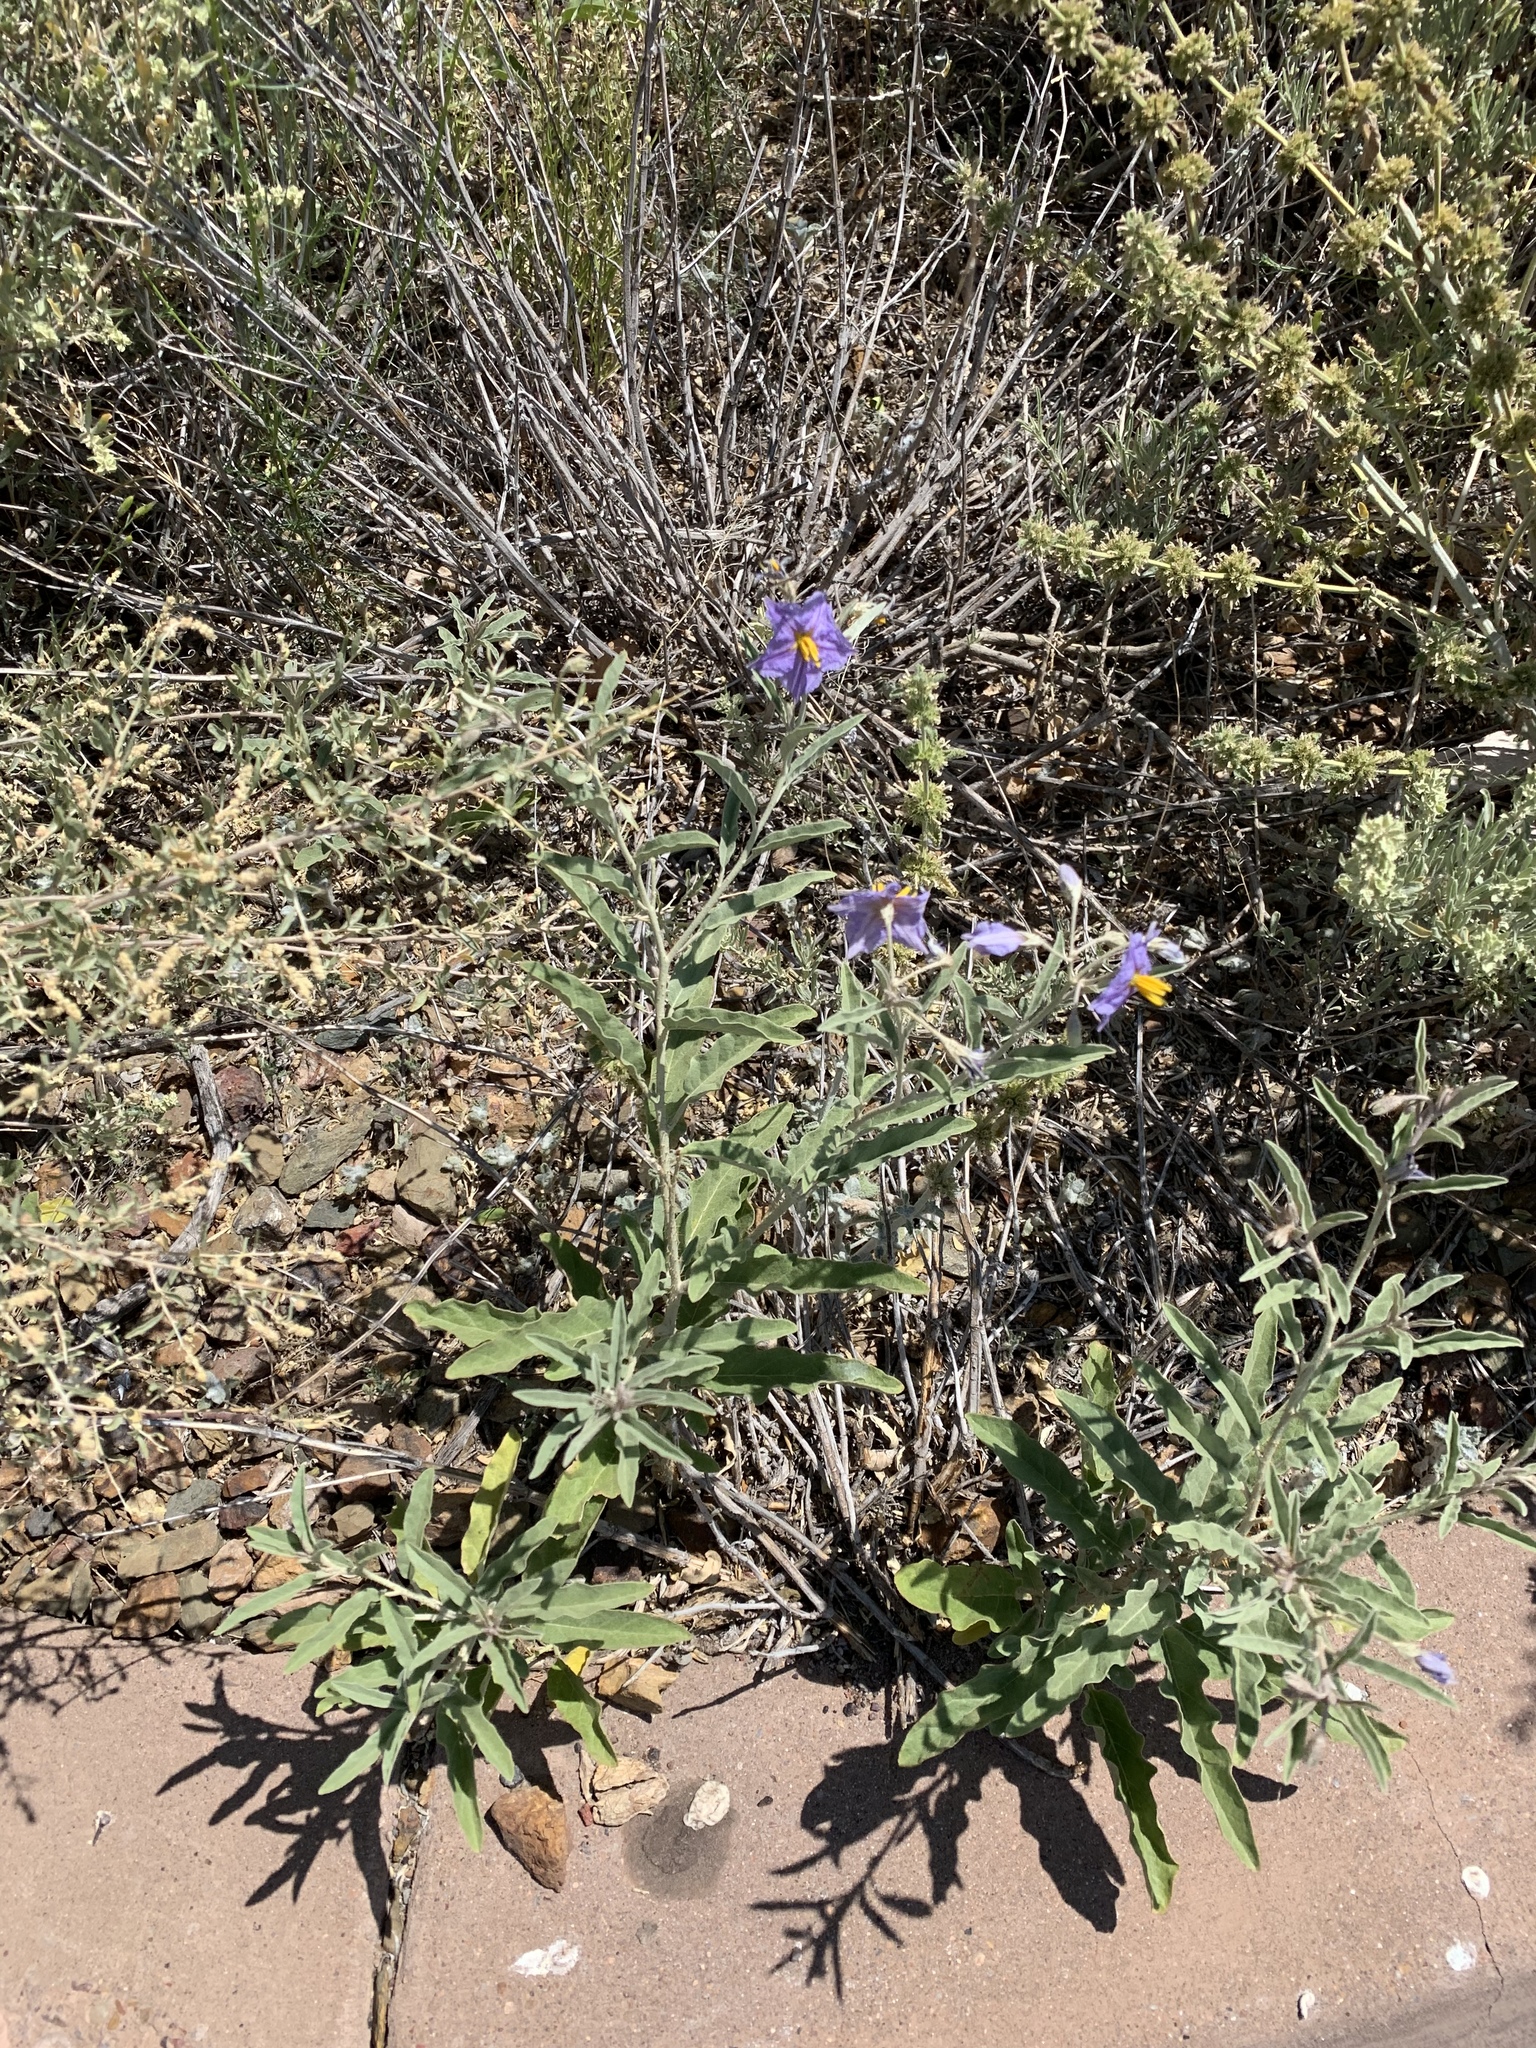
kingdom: Plantae
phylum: Tracheophyta
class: Magnoliopsida
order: Solanales
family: Solanaceae
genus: Solanum
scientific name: Solanum elaeagnifolium
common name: Silverleaf nightshade
